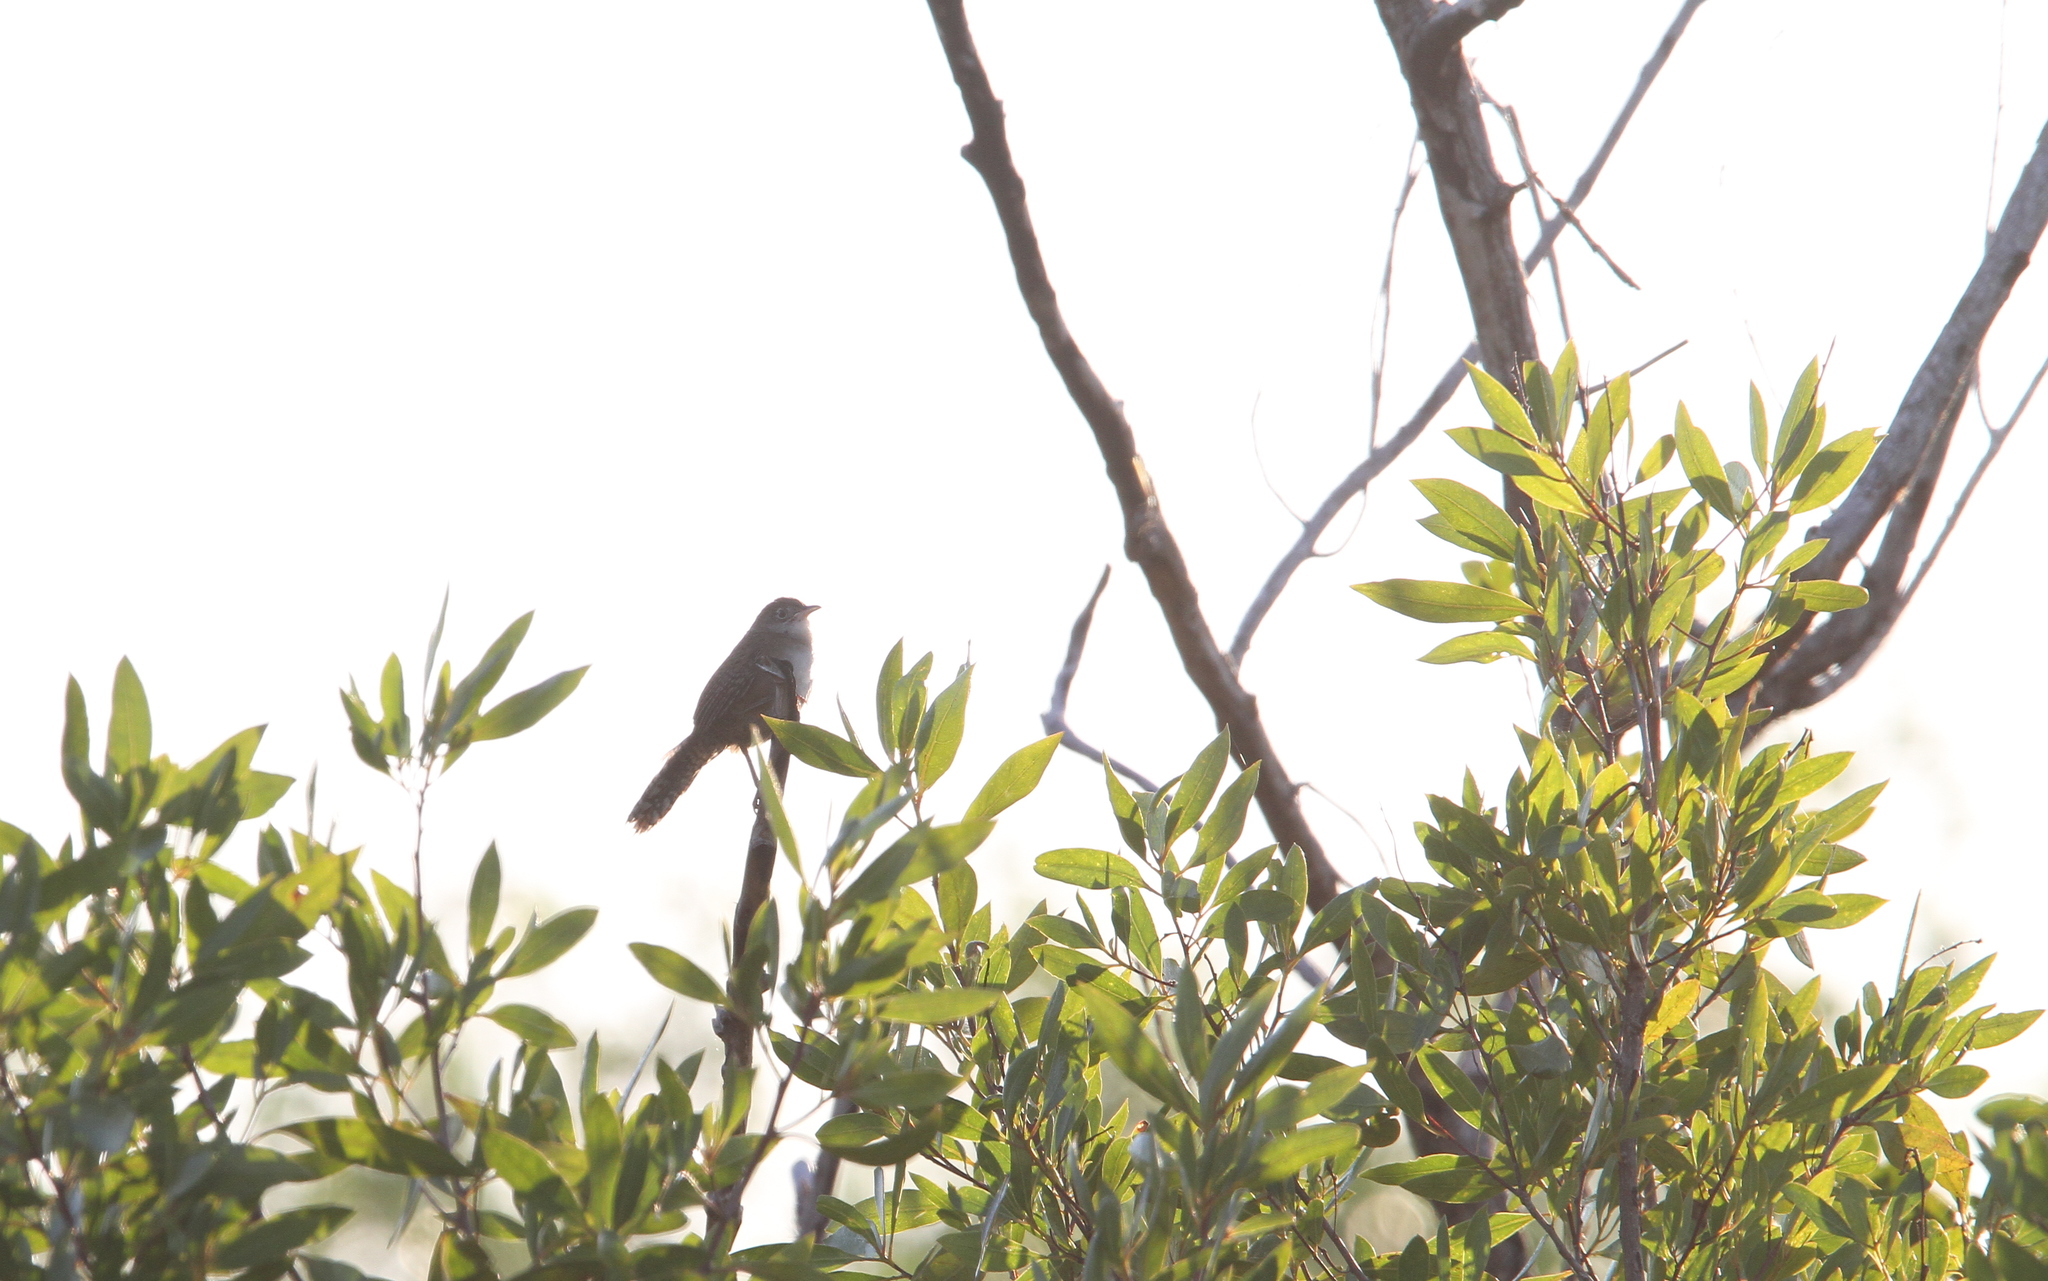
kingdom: Animalia
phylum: Chordata
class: Aves
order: Passeriformes
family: Troglodytidae
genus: Ferminia
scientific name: Ferminia cerverai
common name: Zapata wren
